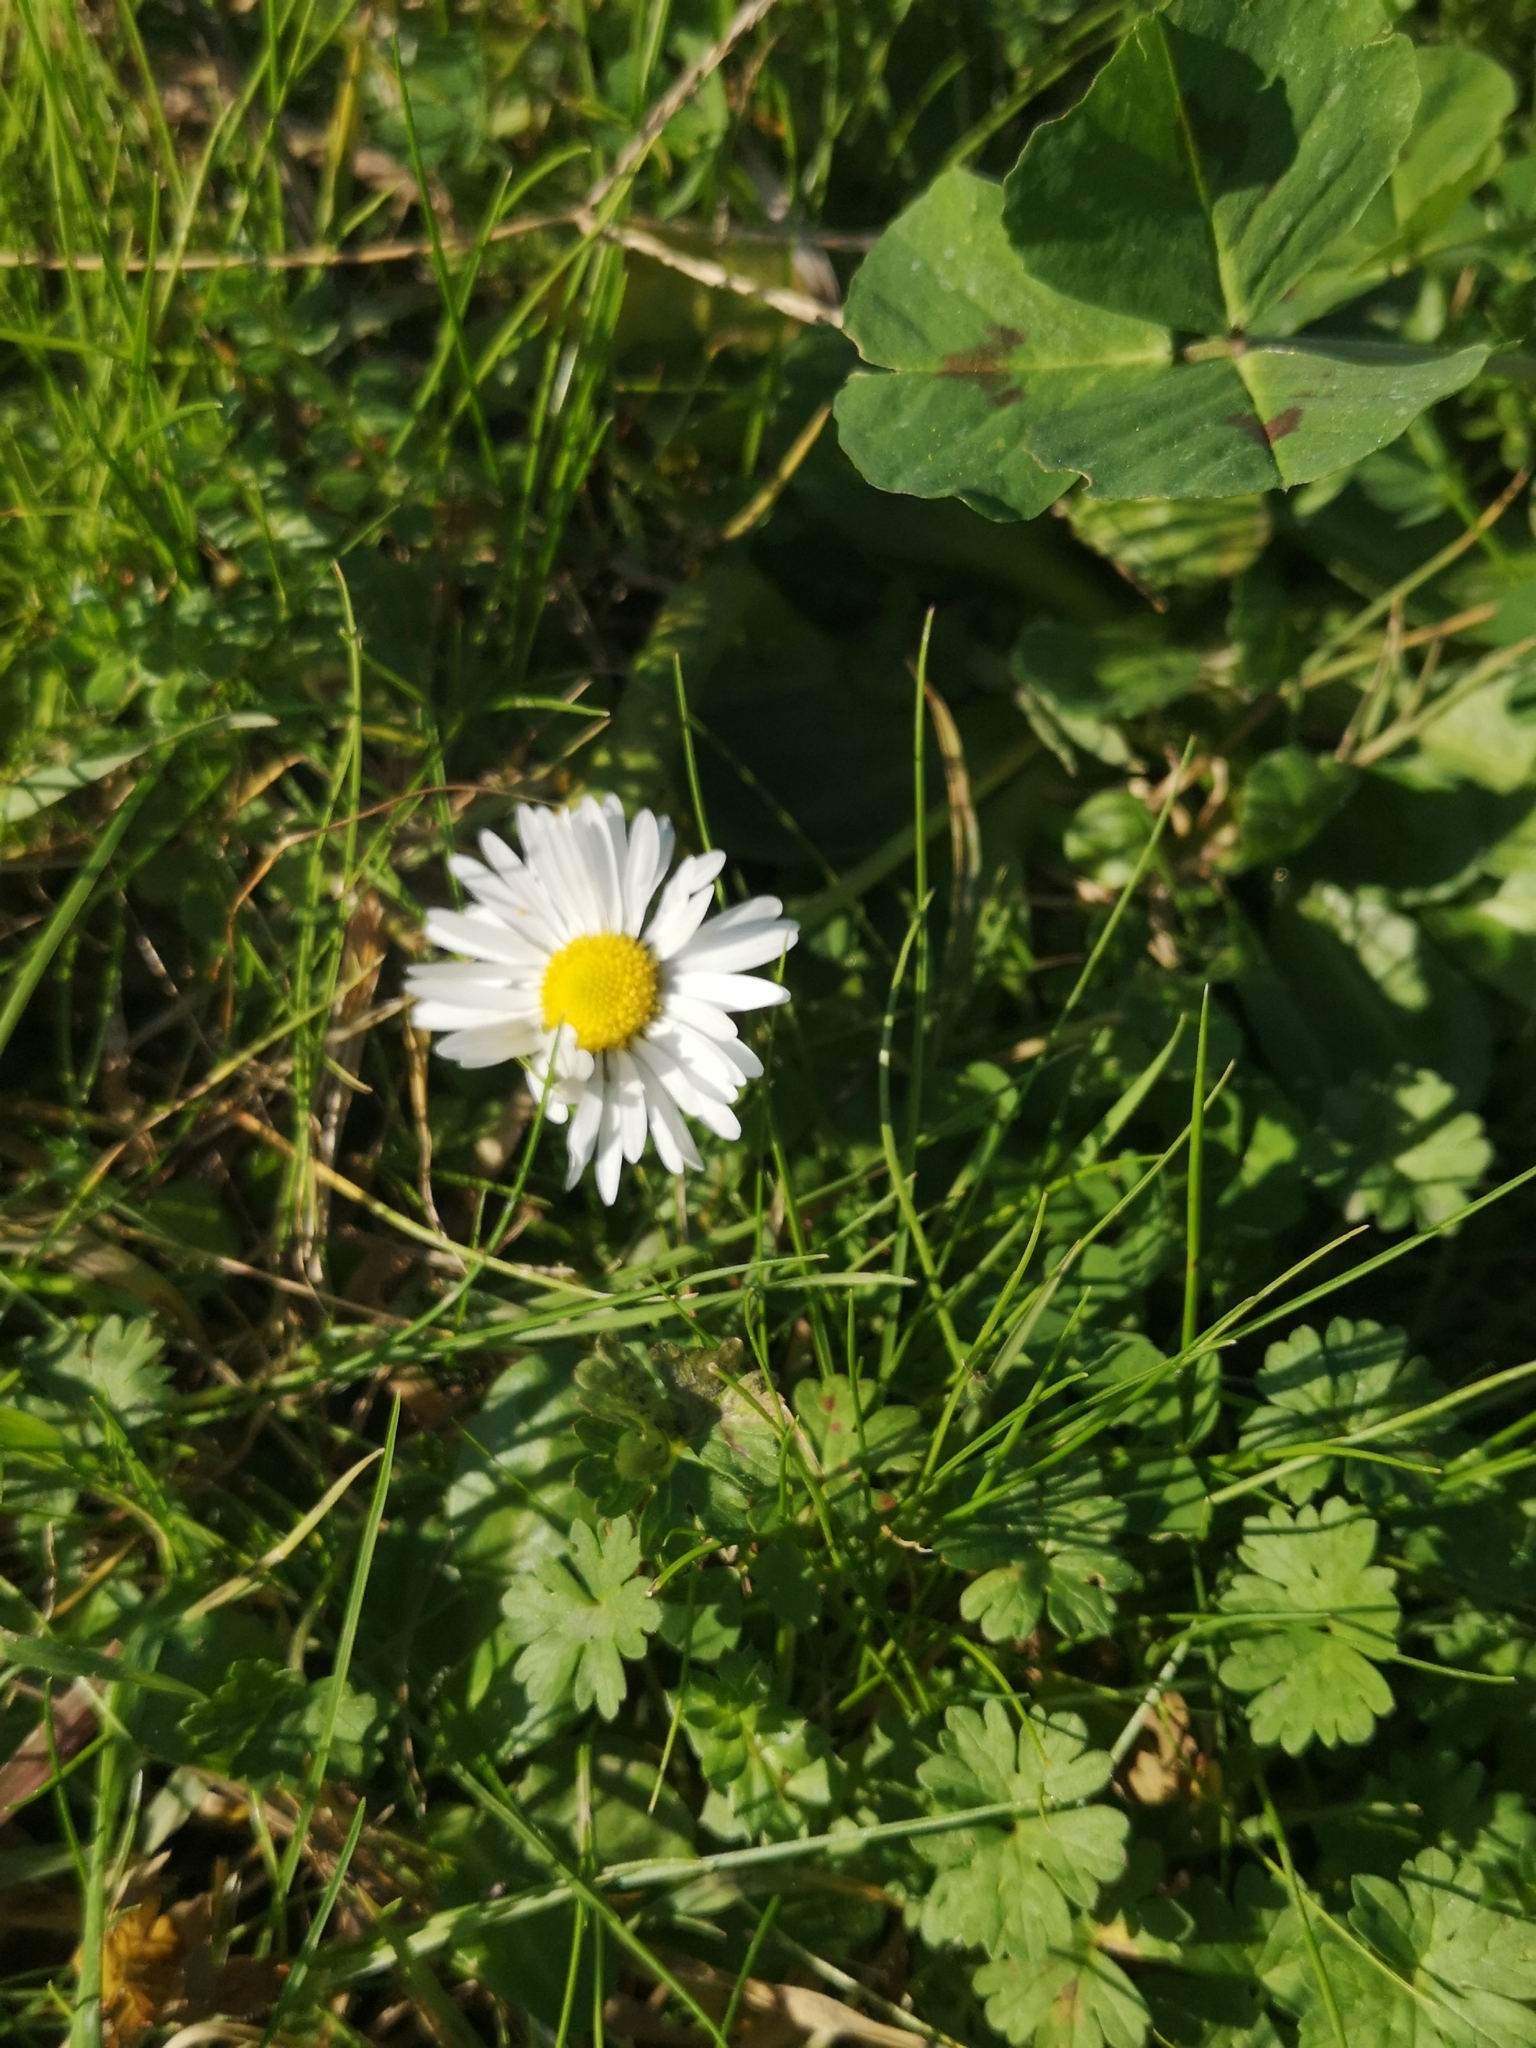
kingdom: Plantae
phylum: Tracheophyta
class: Magnoliopsida
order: Asterales
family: Asteraceae
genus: Bellis
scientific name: Bellis perennis
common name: Lawndaisy
